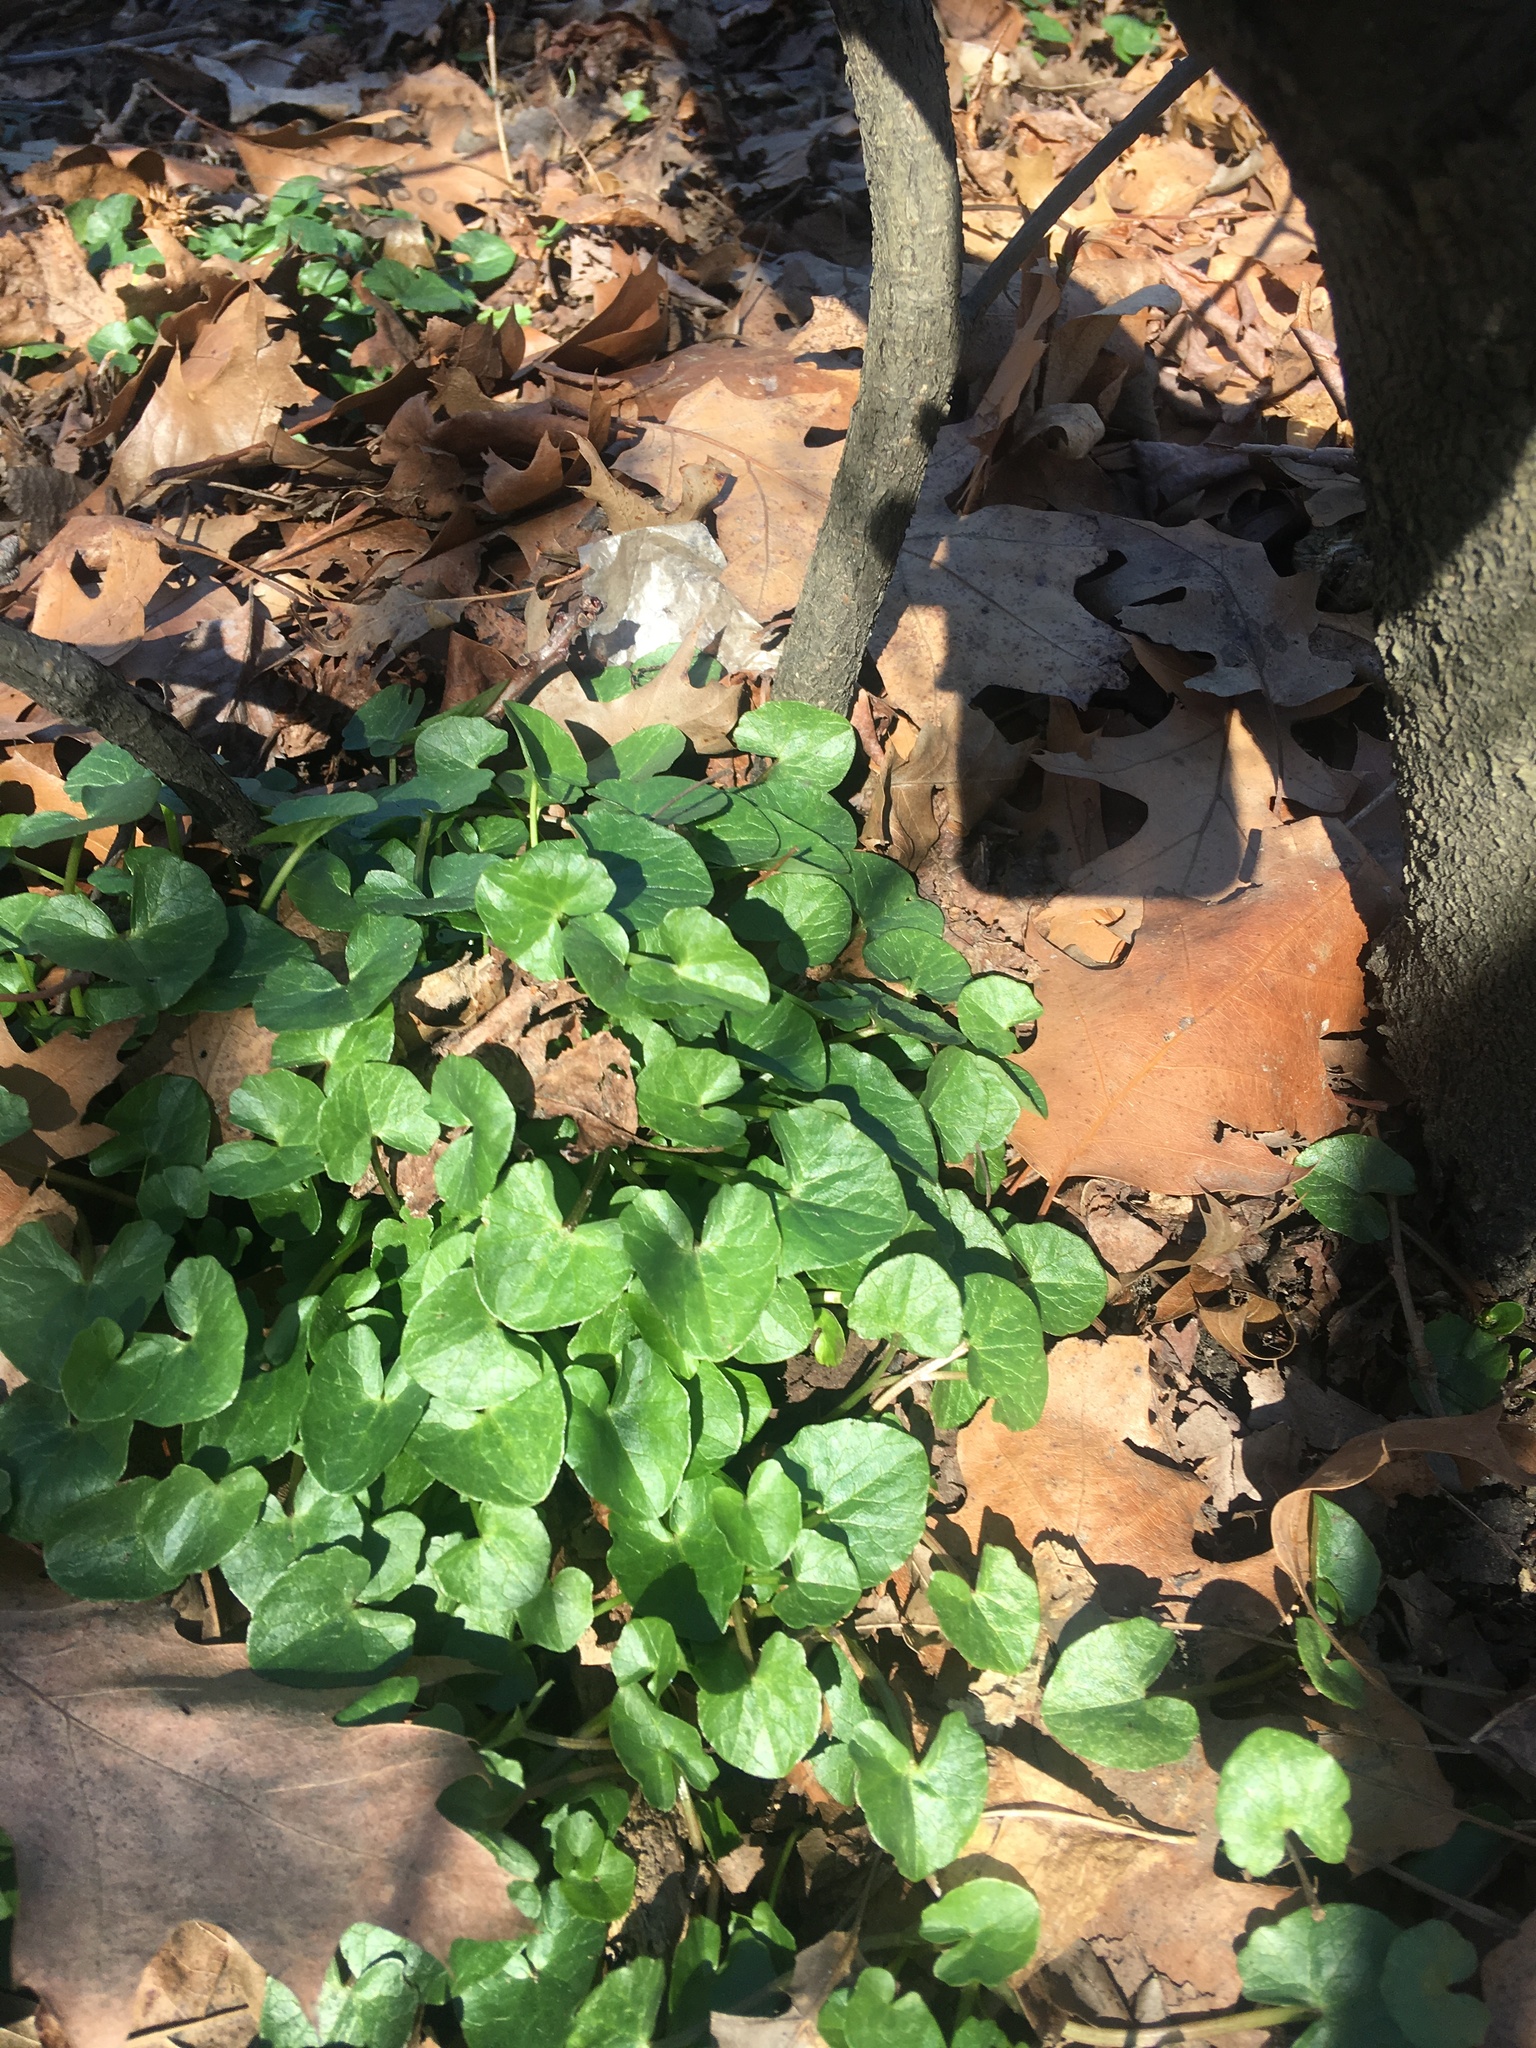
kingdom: Plantae
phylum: Tracheophyta
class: Magnoliopsida
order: Ranunculales
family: Ranunculaceae
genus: Ficaria
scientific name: Ficaria verna
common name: Lesser celandine
